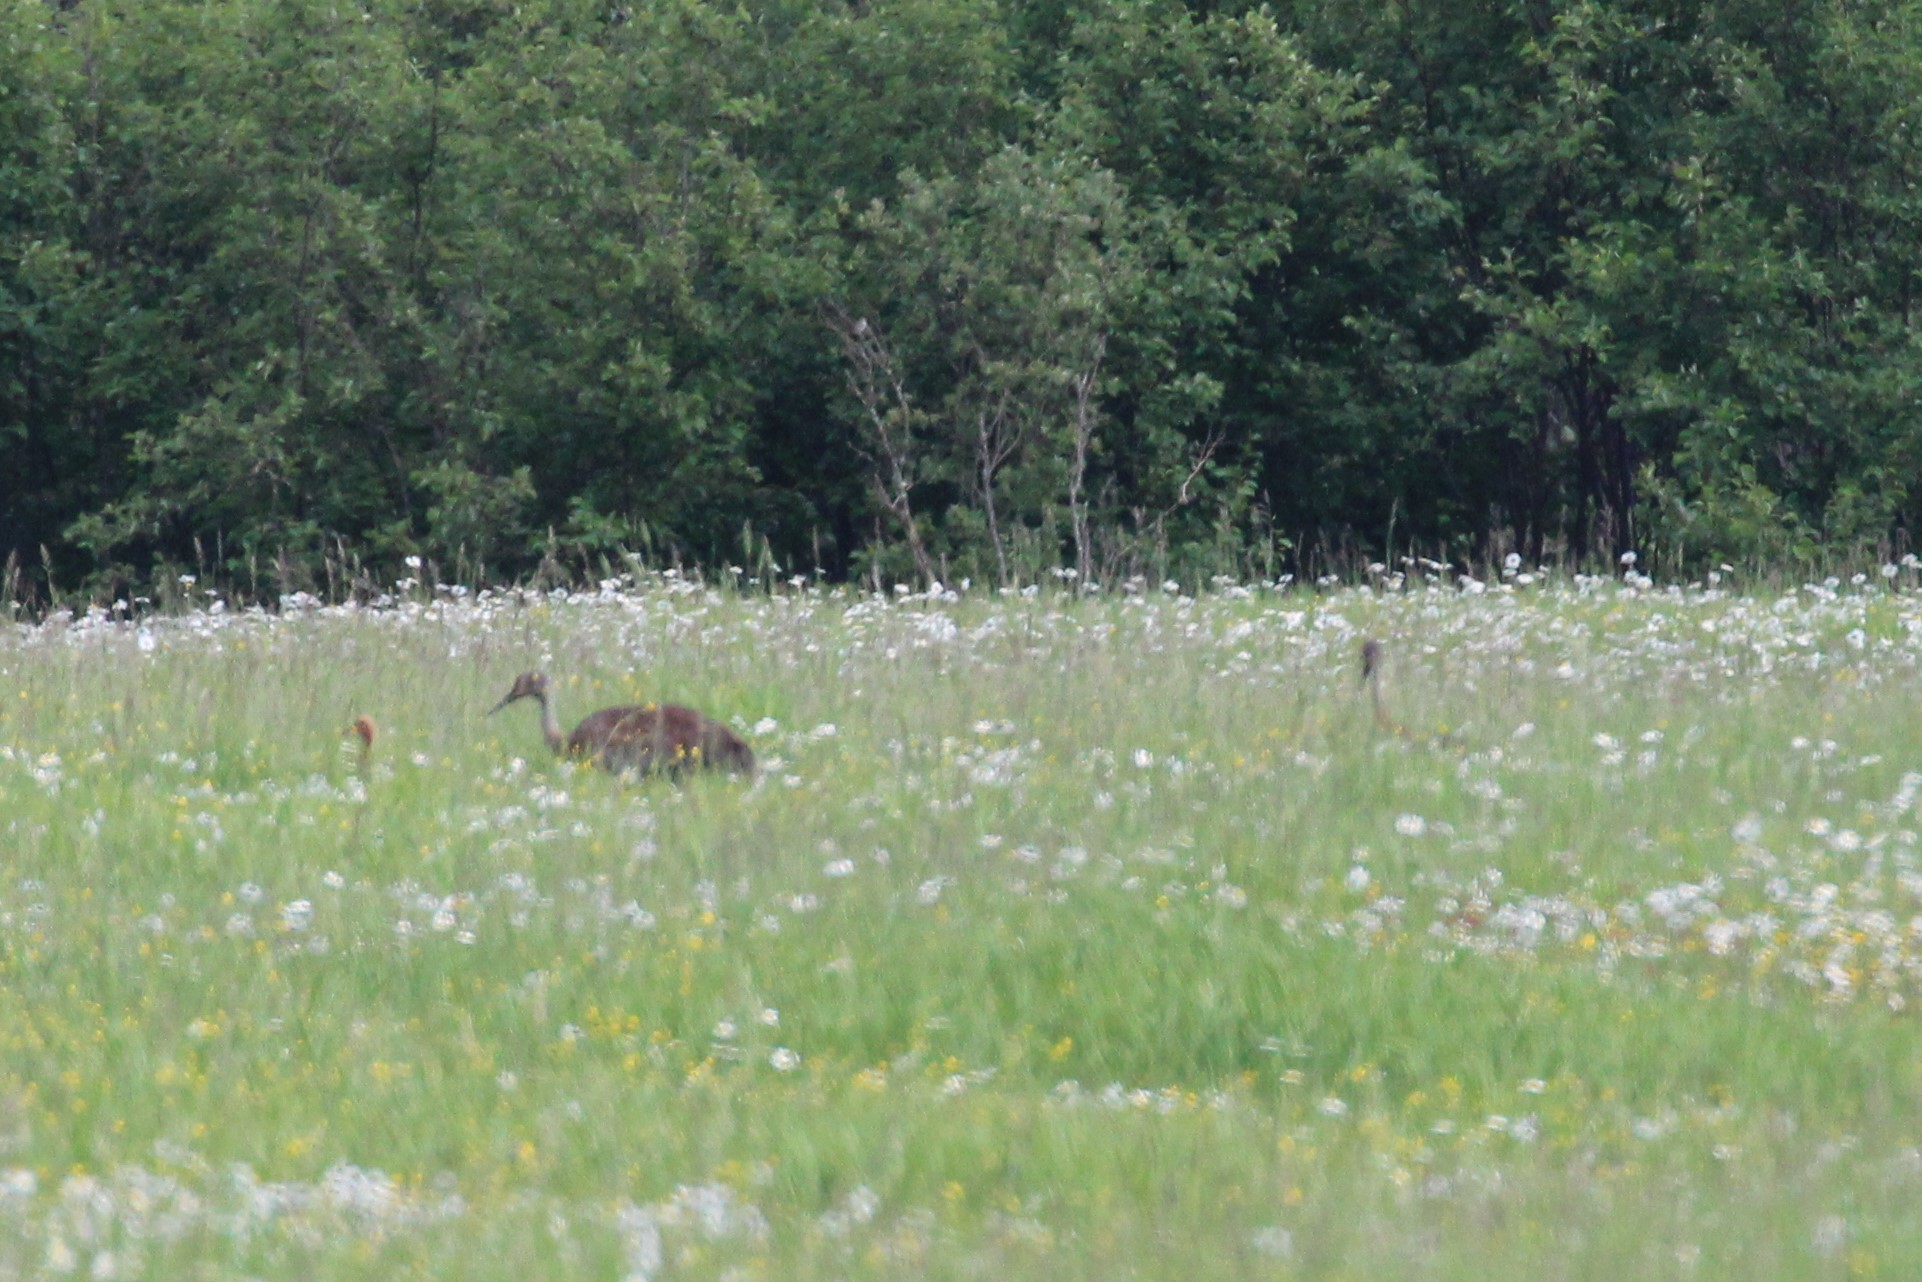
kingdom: Animalia
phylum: Chordata
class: Aves
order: Gruiformes
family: Gruidae
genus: Grus
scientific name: Grus canadensis
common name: Sandhill crane
